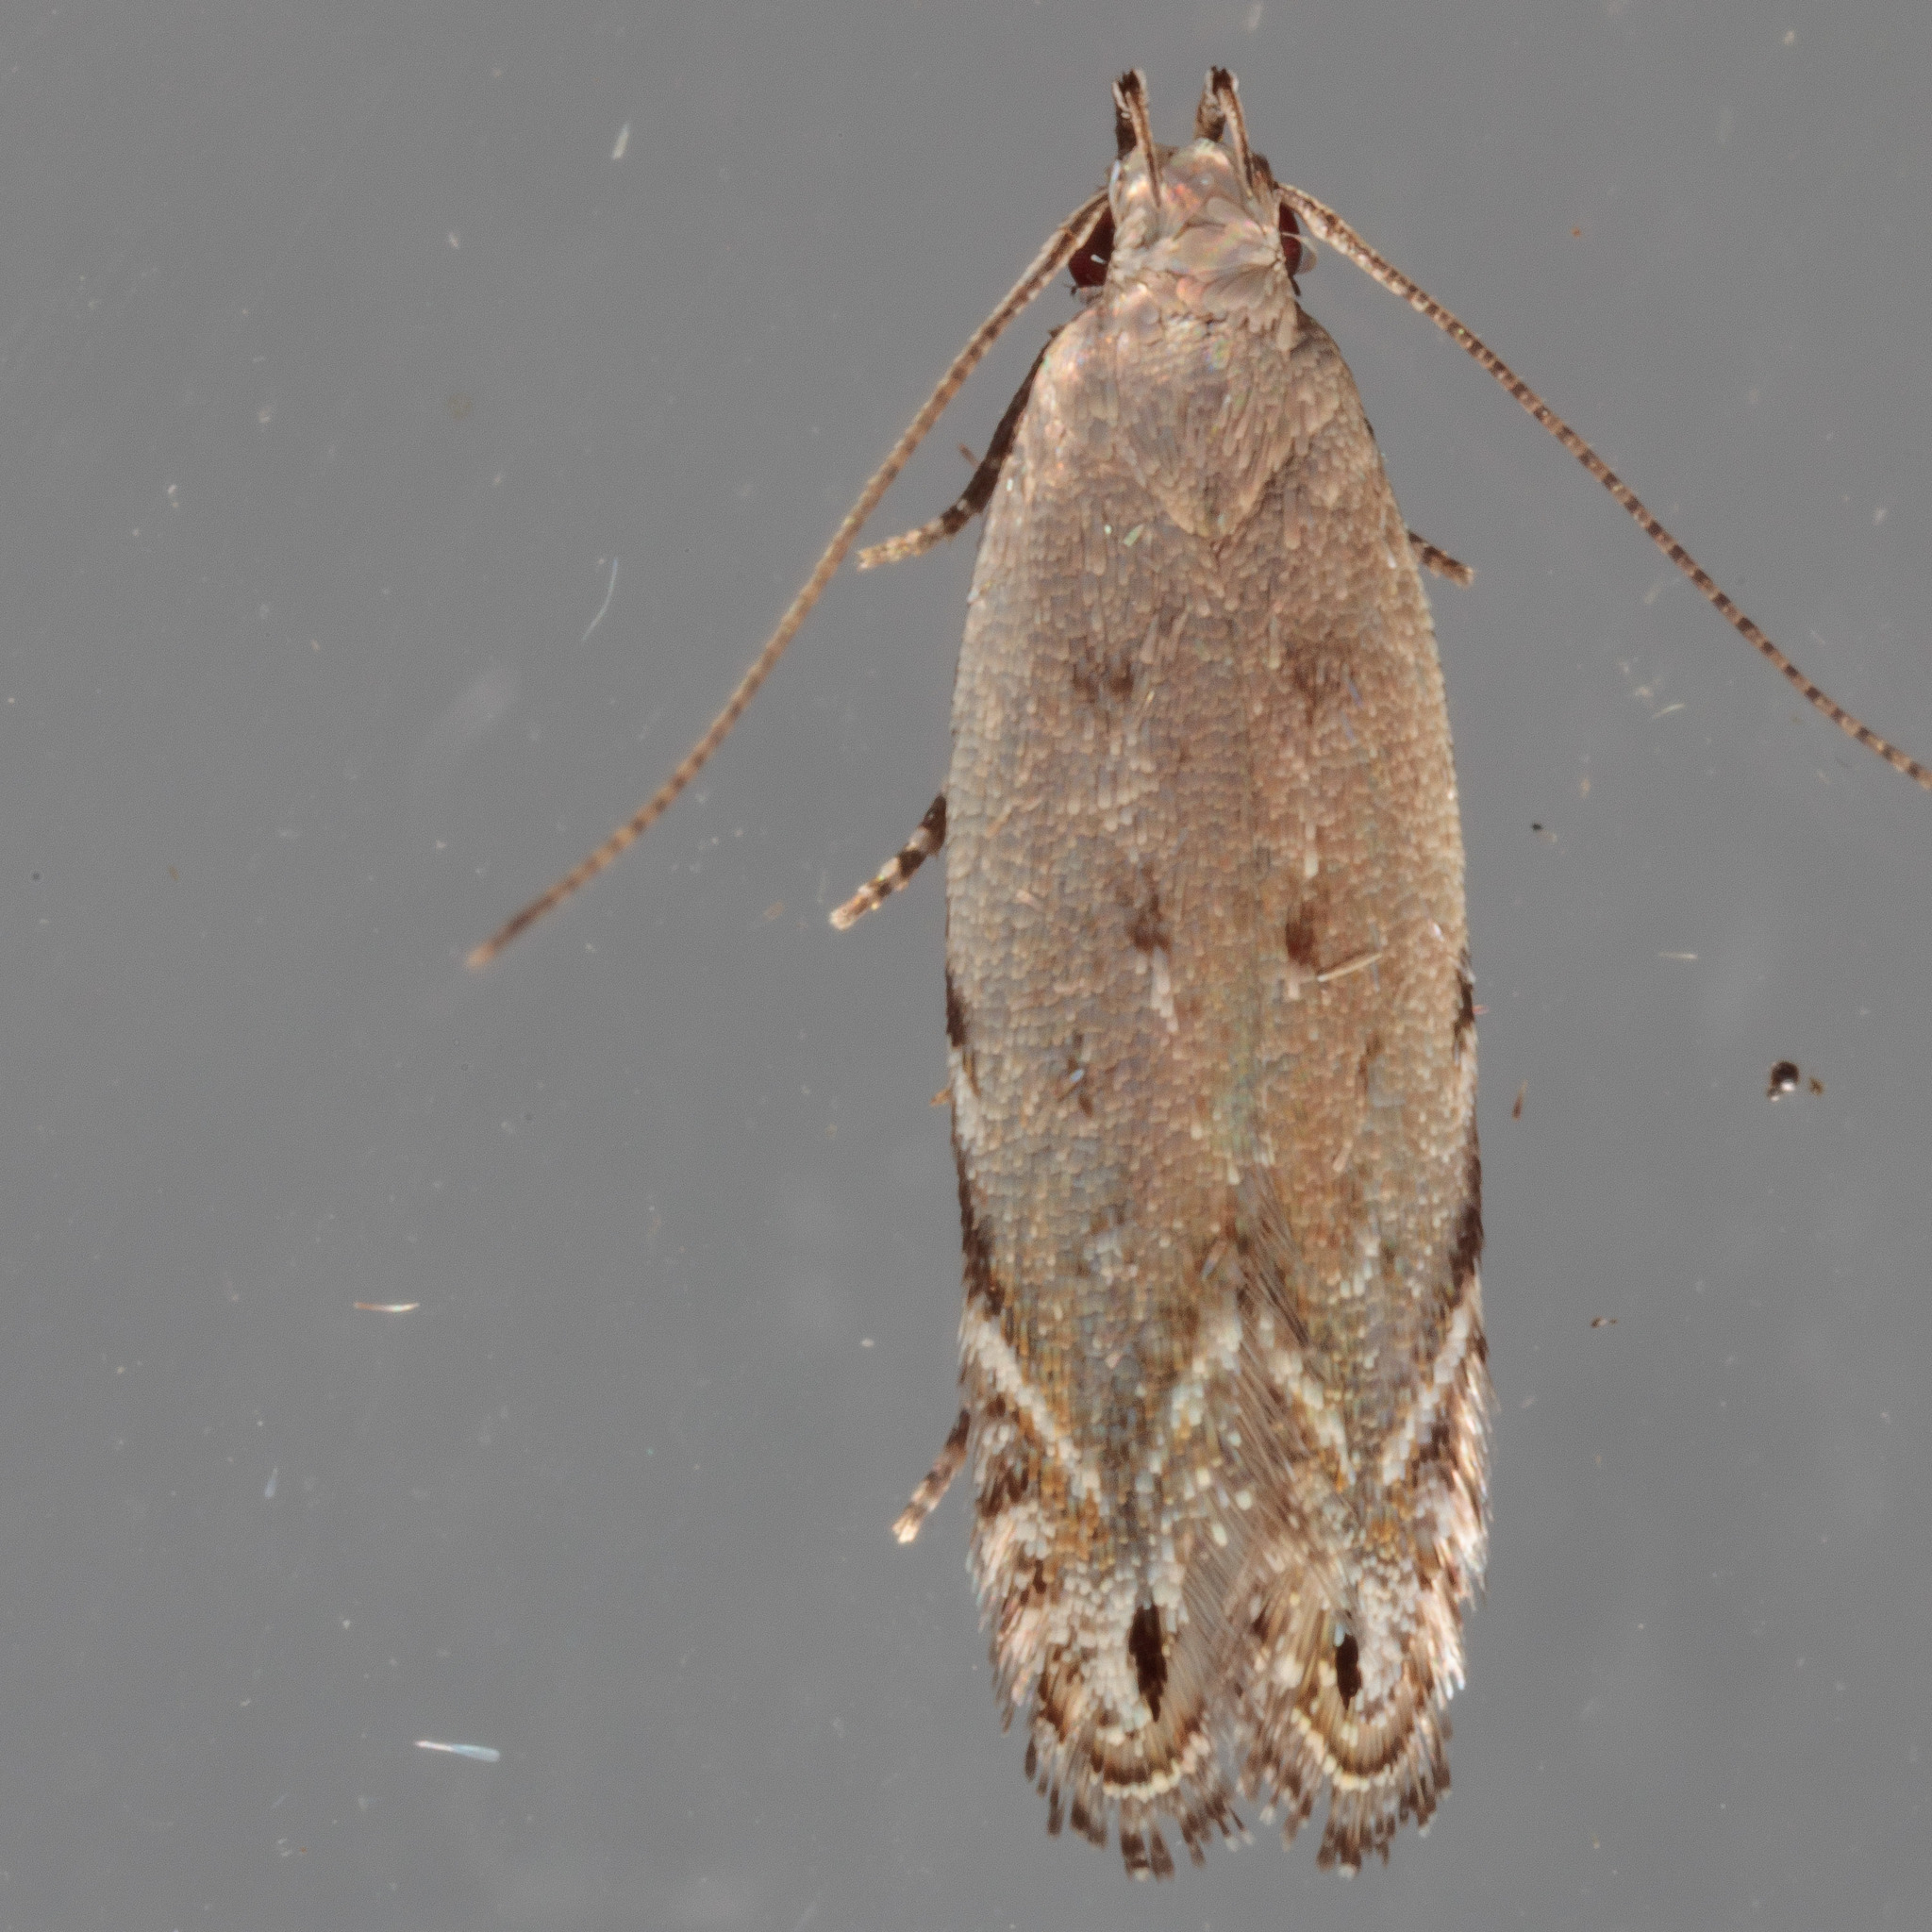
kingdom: Animalia
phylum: Arthropoda
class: Insecta
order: Lepidoptera
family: Gelechiidae
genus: Battaristis
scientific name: Battaristis concinnusella
